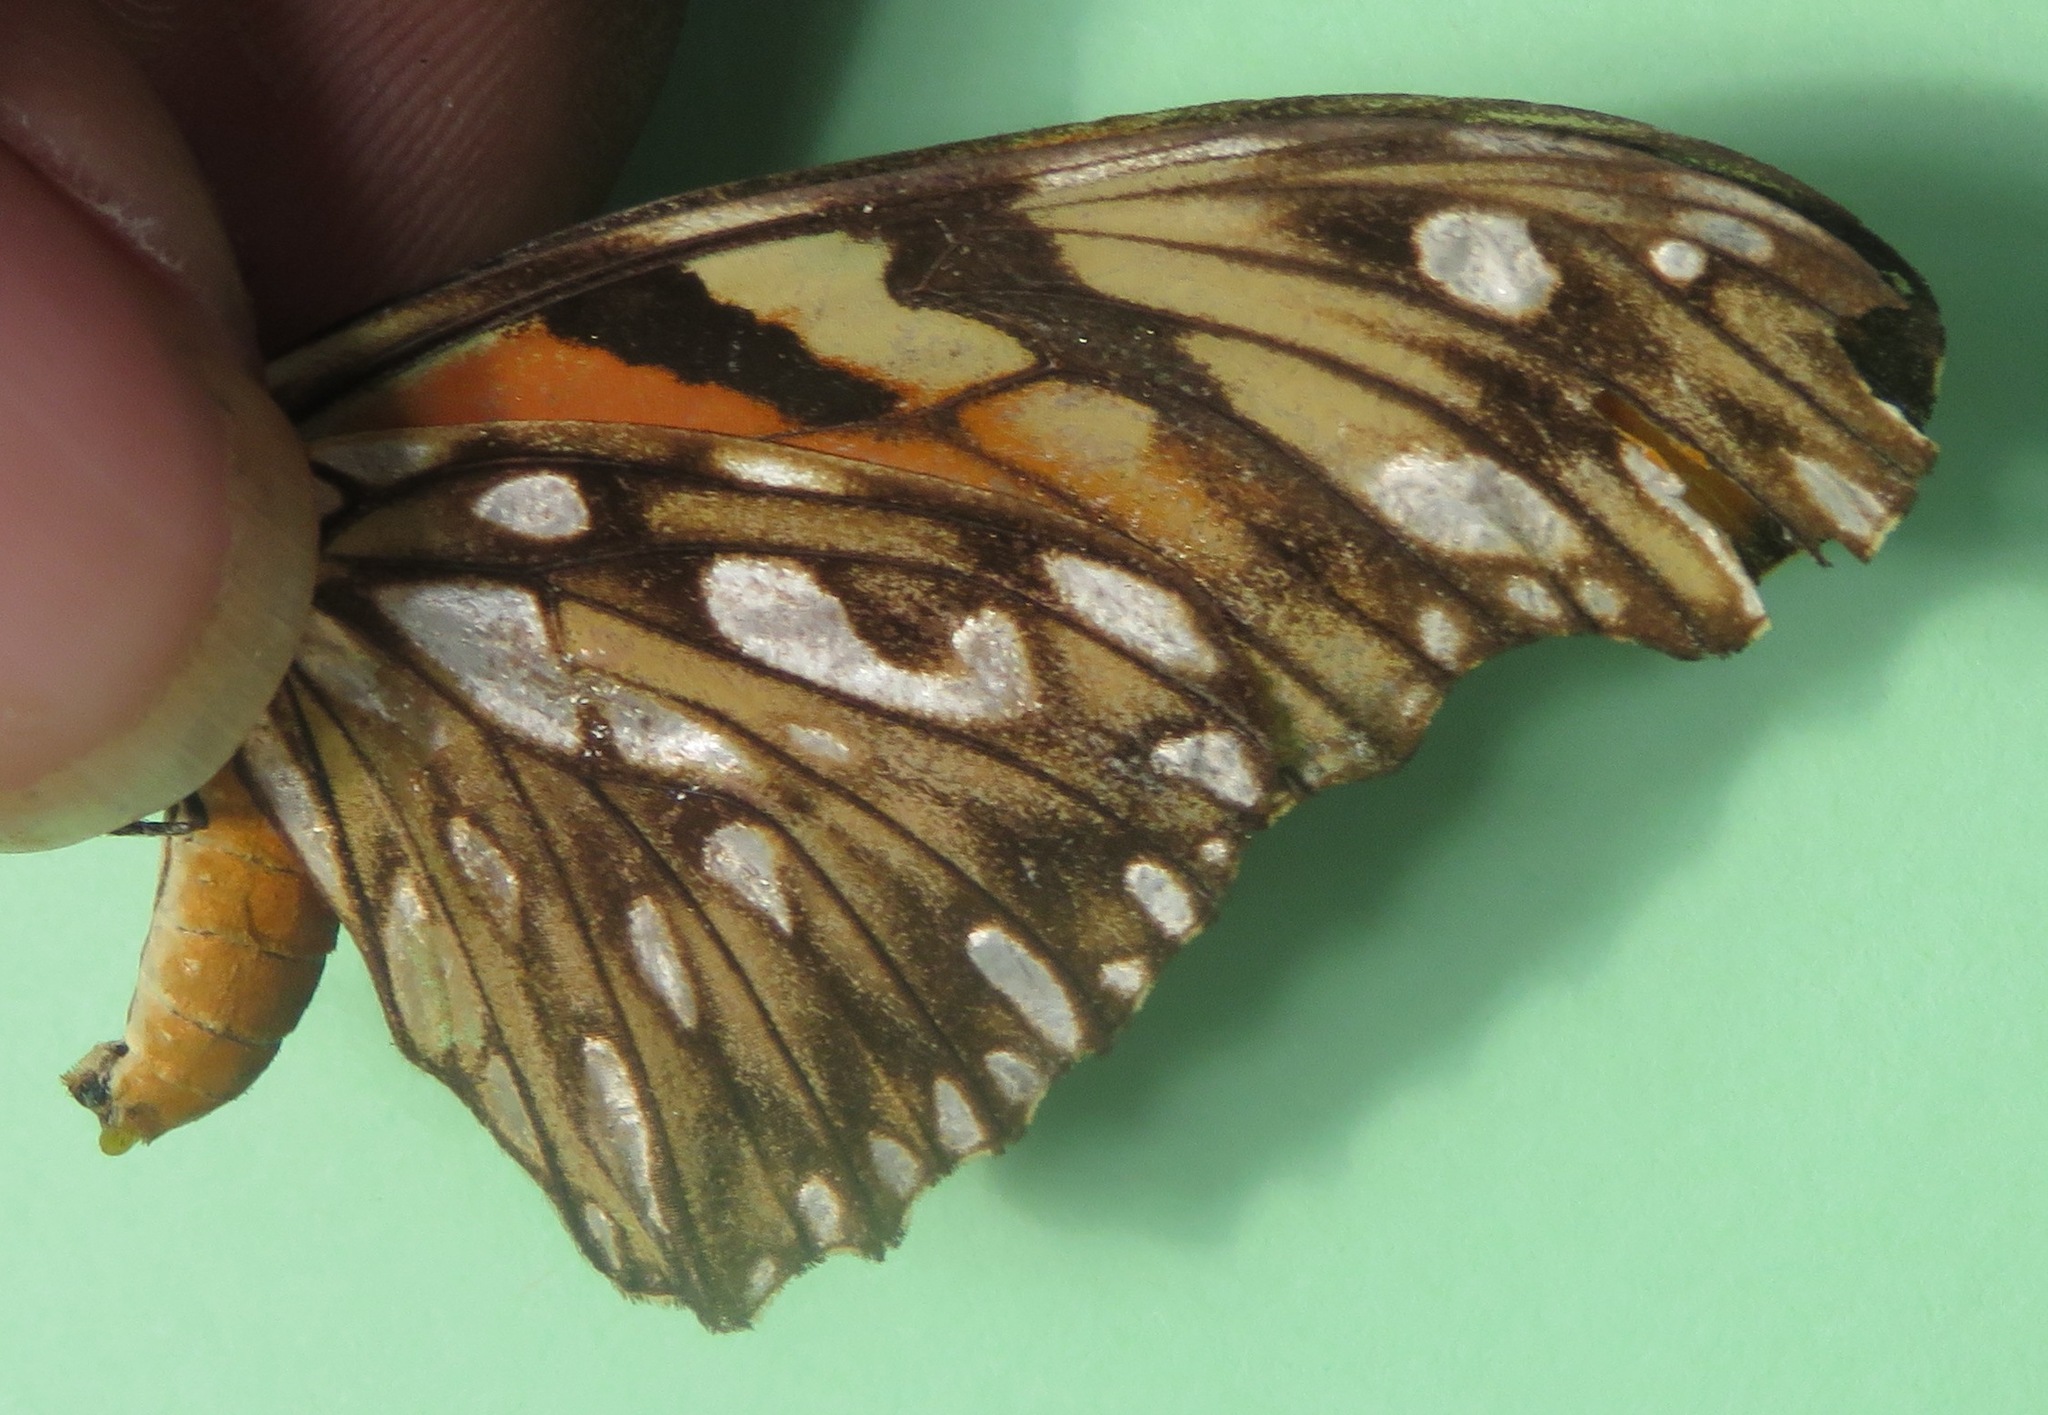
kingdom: Animalia
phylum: Arthropoda
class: Insecta
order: Lepidoptera
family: Nymphalidae
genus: Dione
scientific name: Dione juno
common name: Juno silverspot
